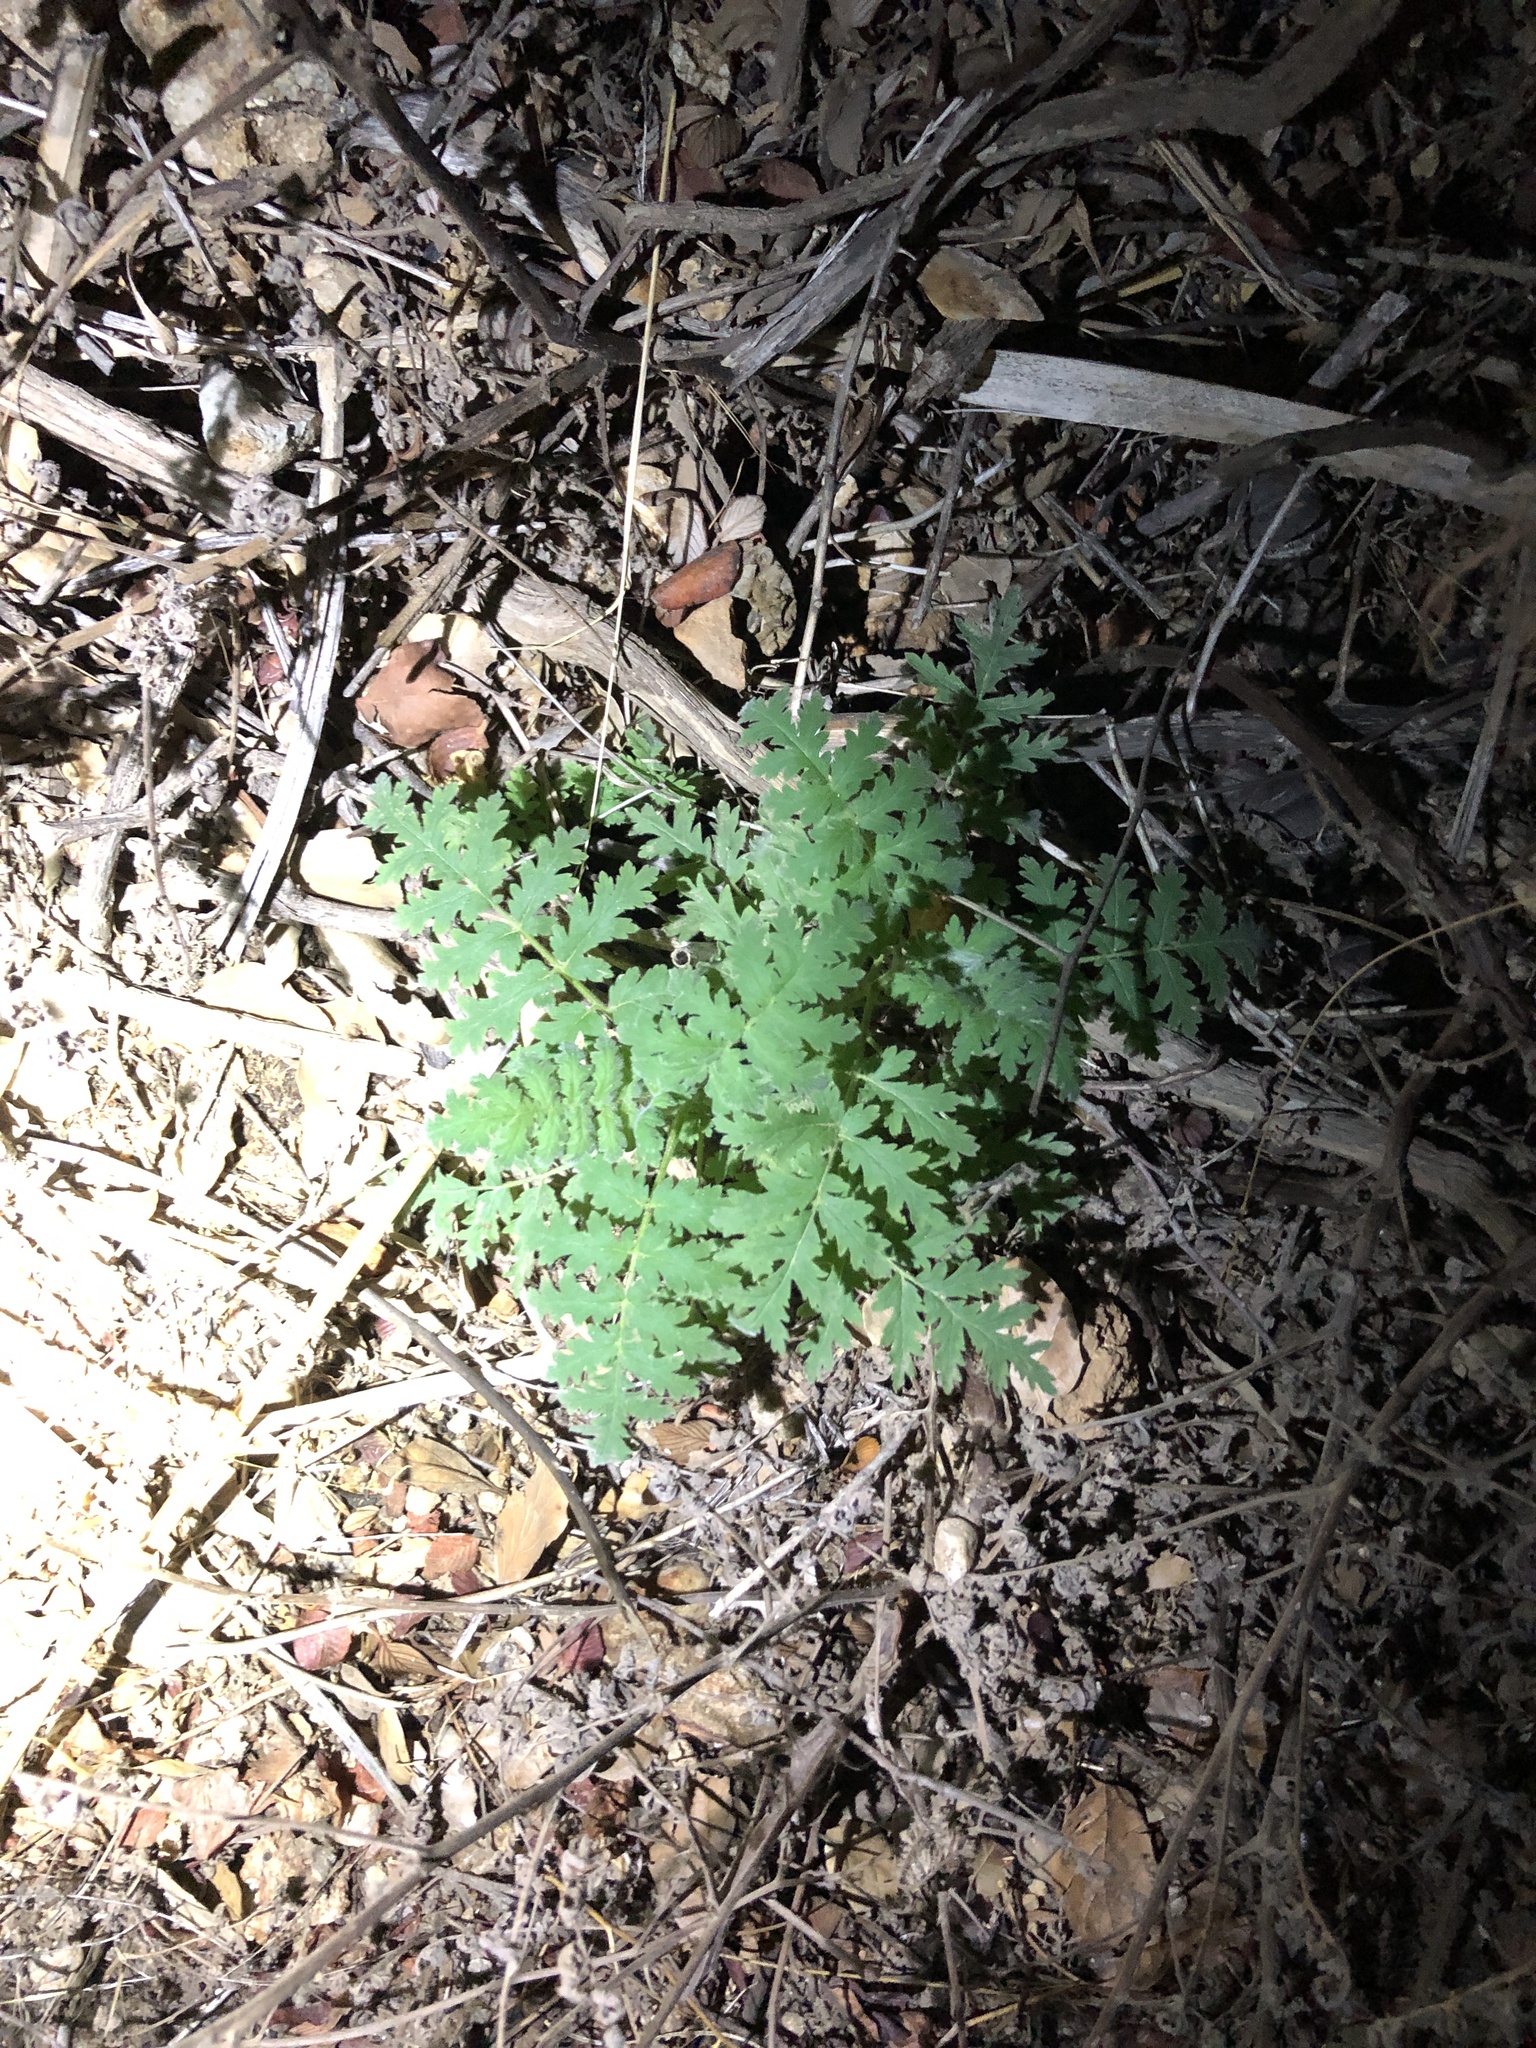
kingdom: Plantae
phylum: Tracheophyta
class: Magnoliopsida
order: Boraginales
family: Hydrophyllaceae
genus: Eucrypta
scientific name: Eucrypta chrysanthemifolia
